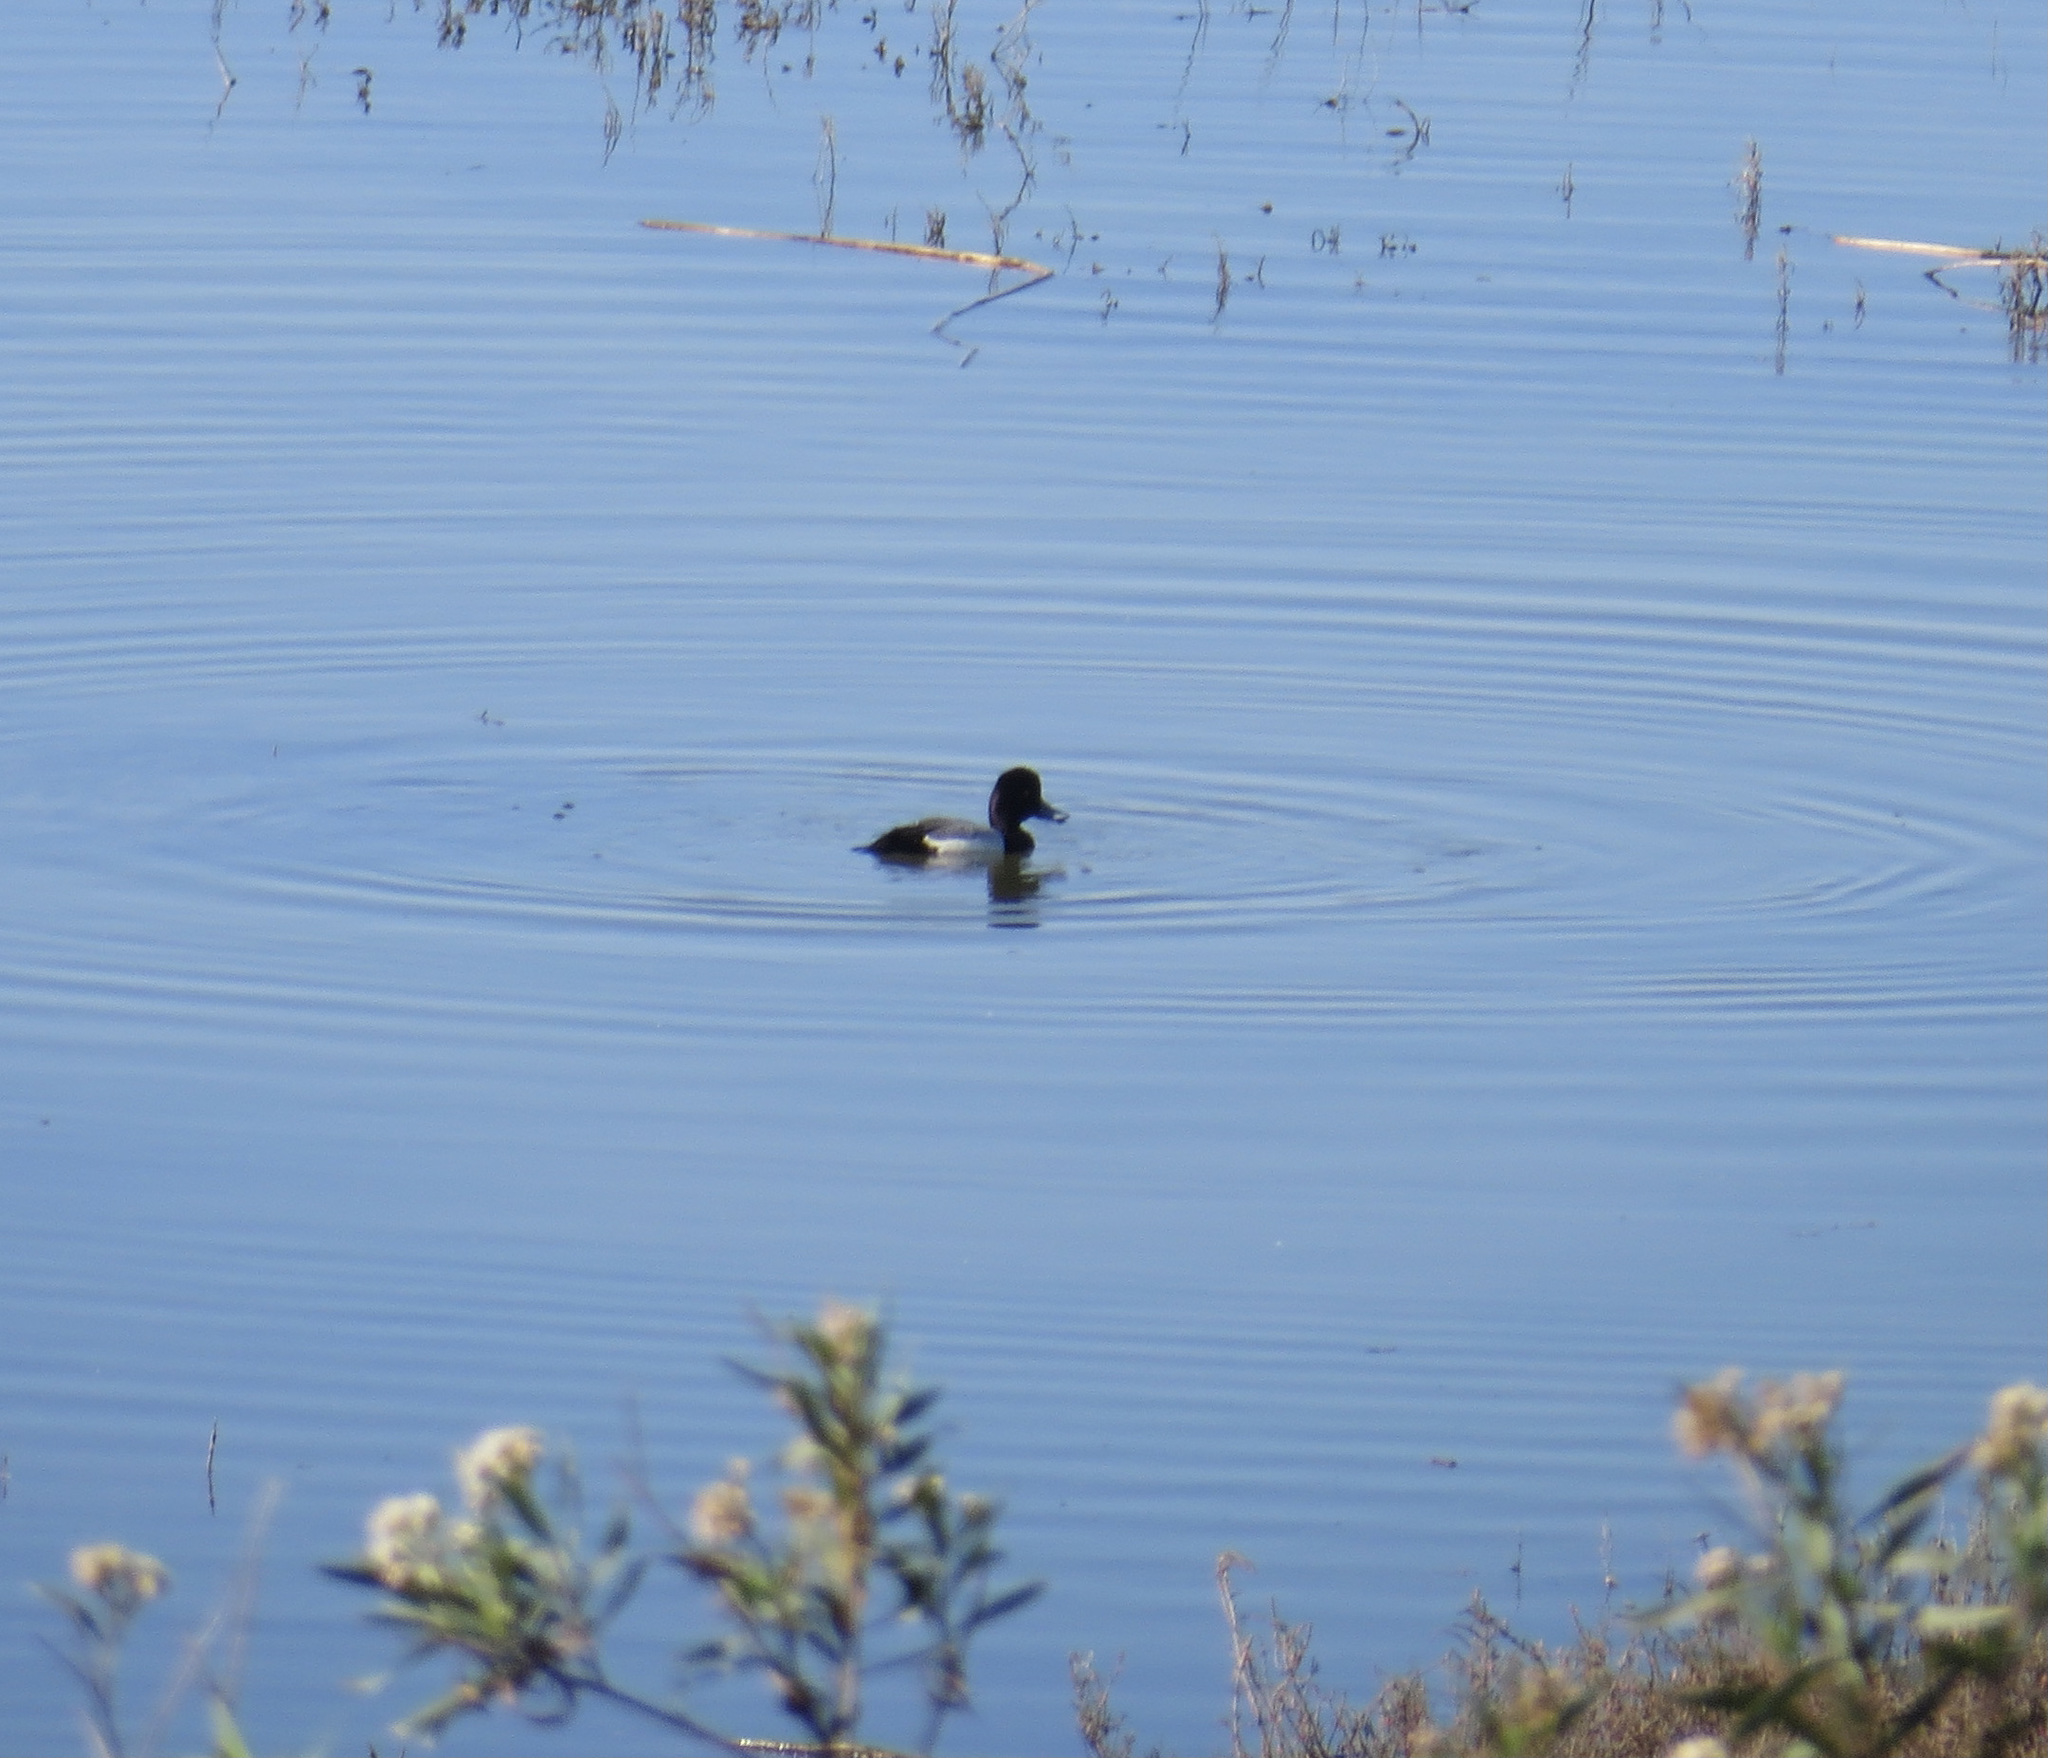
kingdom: Animalia
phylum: Chordata
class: Aves
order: Anseriformes
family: Anatidae
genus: Aythya
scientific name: Aythya affinis
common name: Lesser scaup
